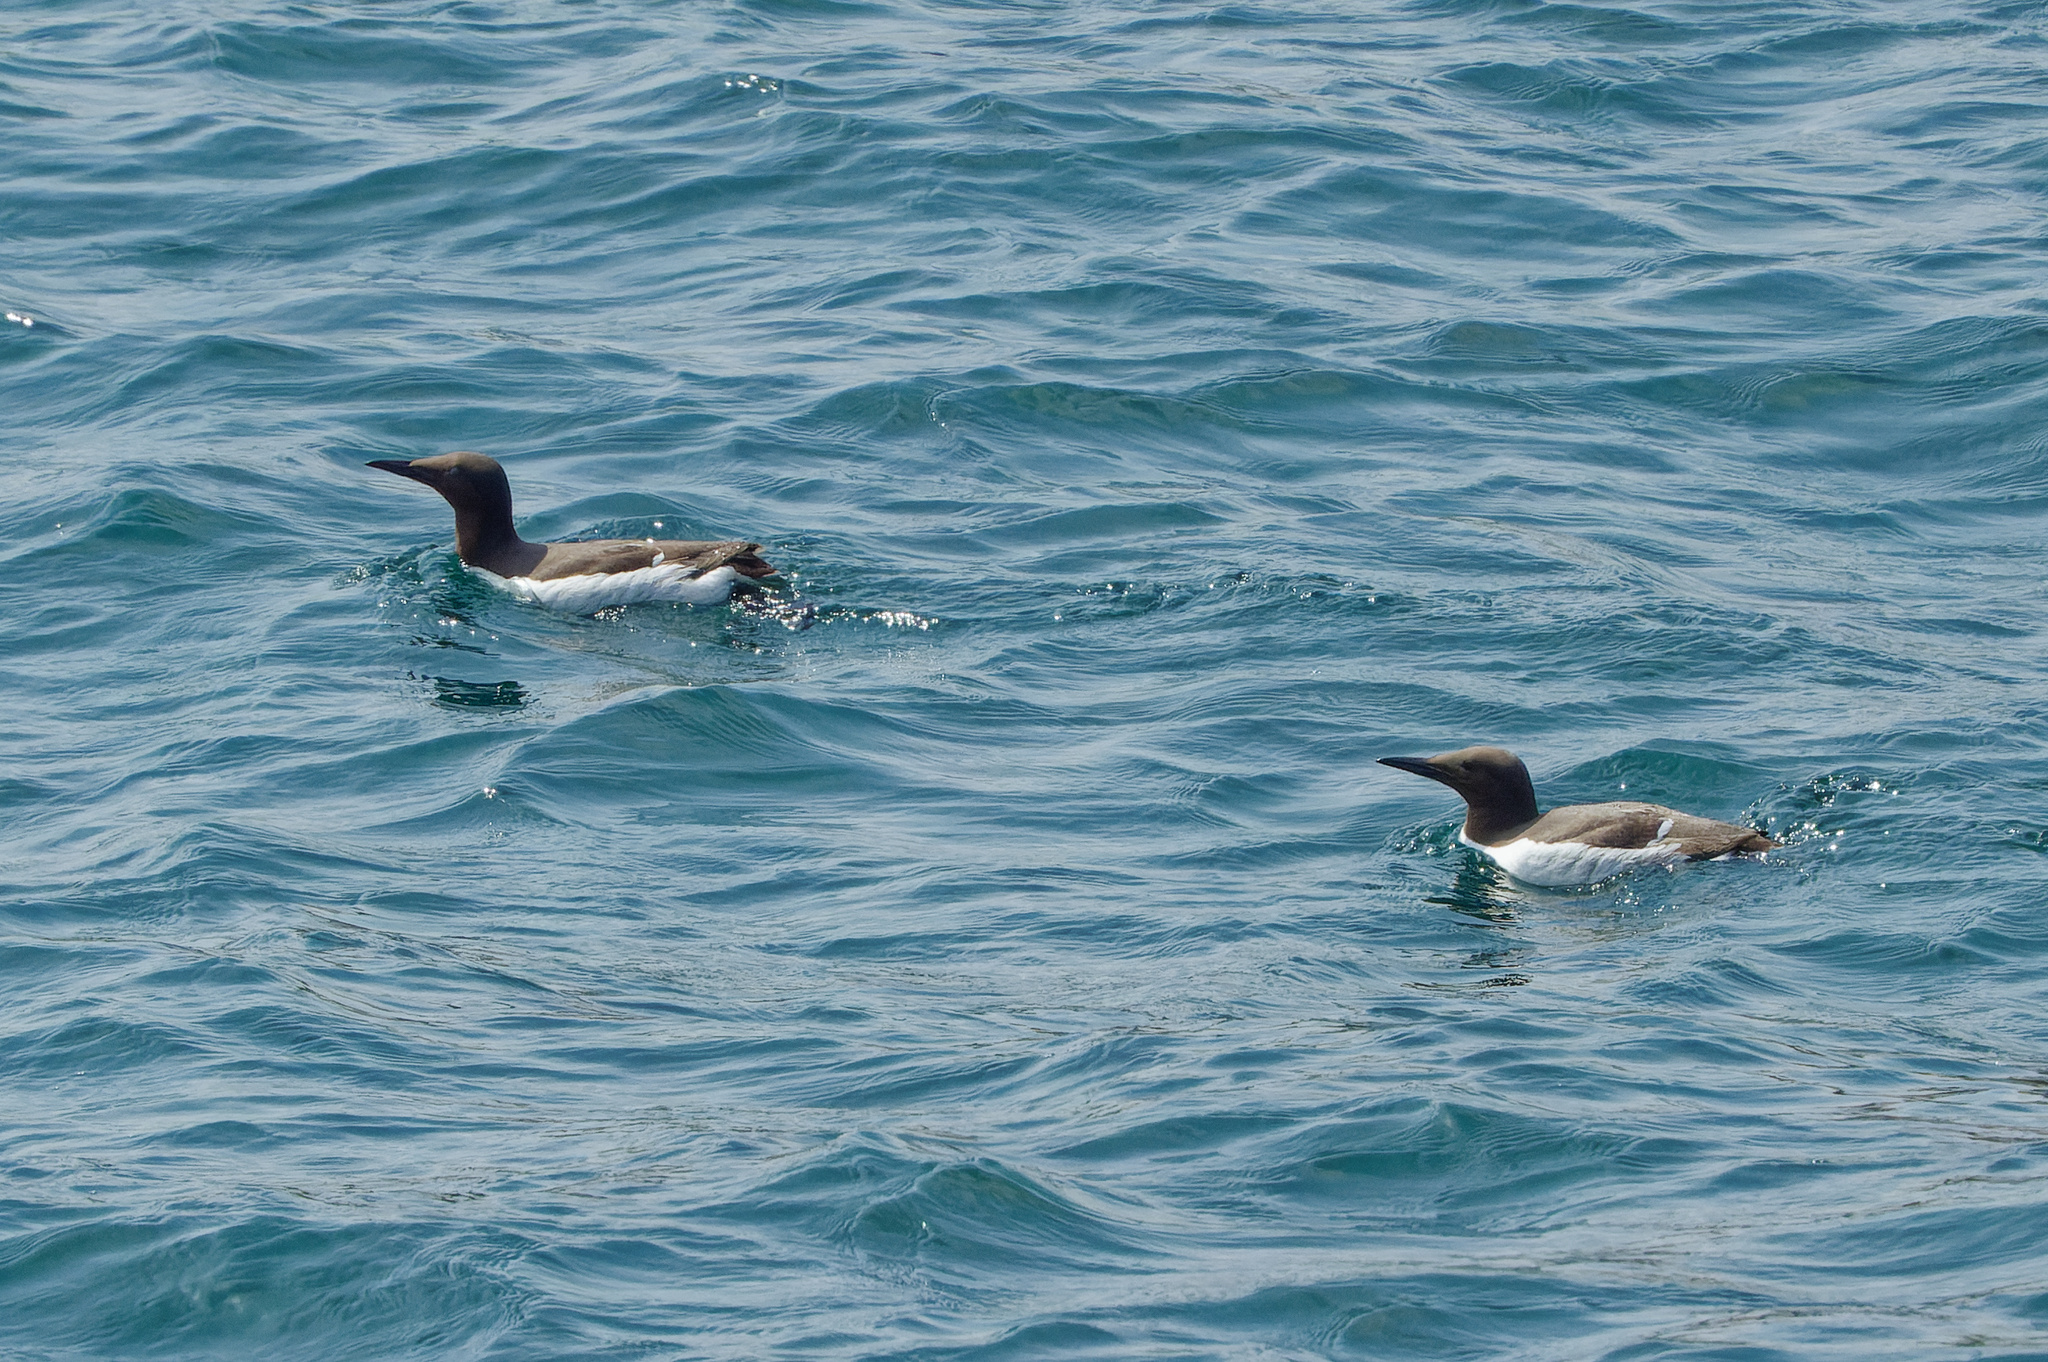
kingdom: Animalia
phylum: Chordata
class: Aves
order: Charadriiformes
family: Alcidae
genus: Uria
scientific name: Uria aalge
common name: Common murre
